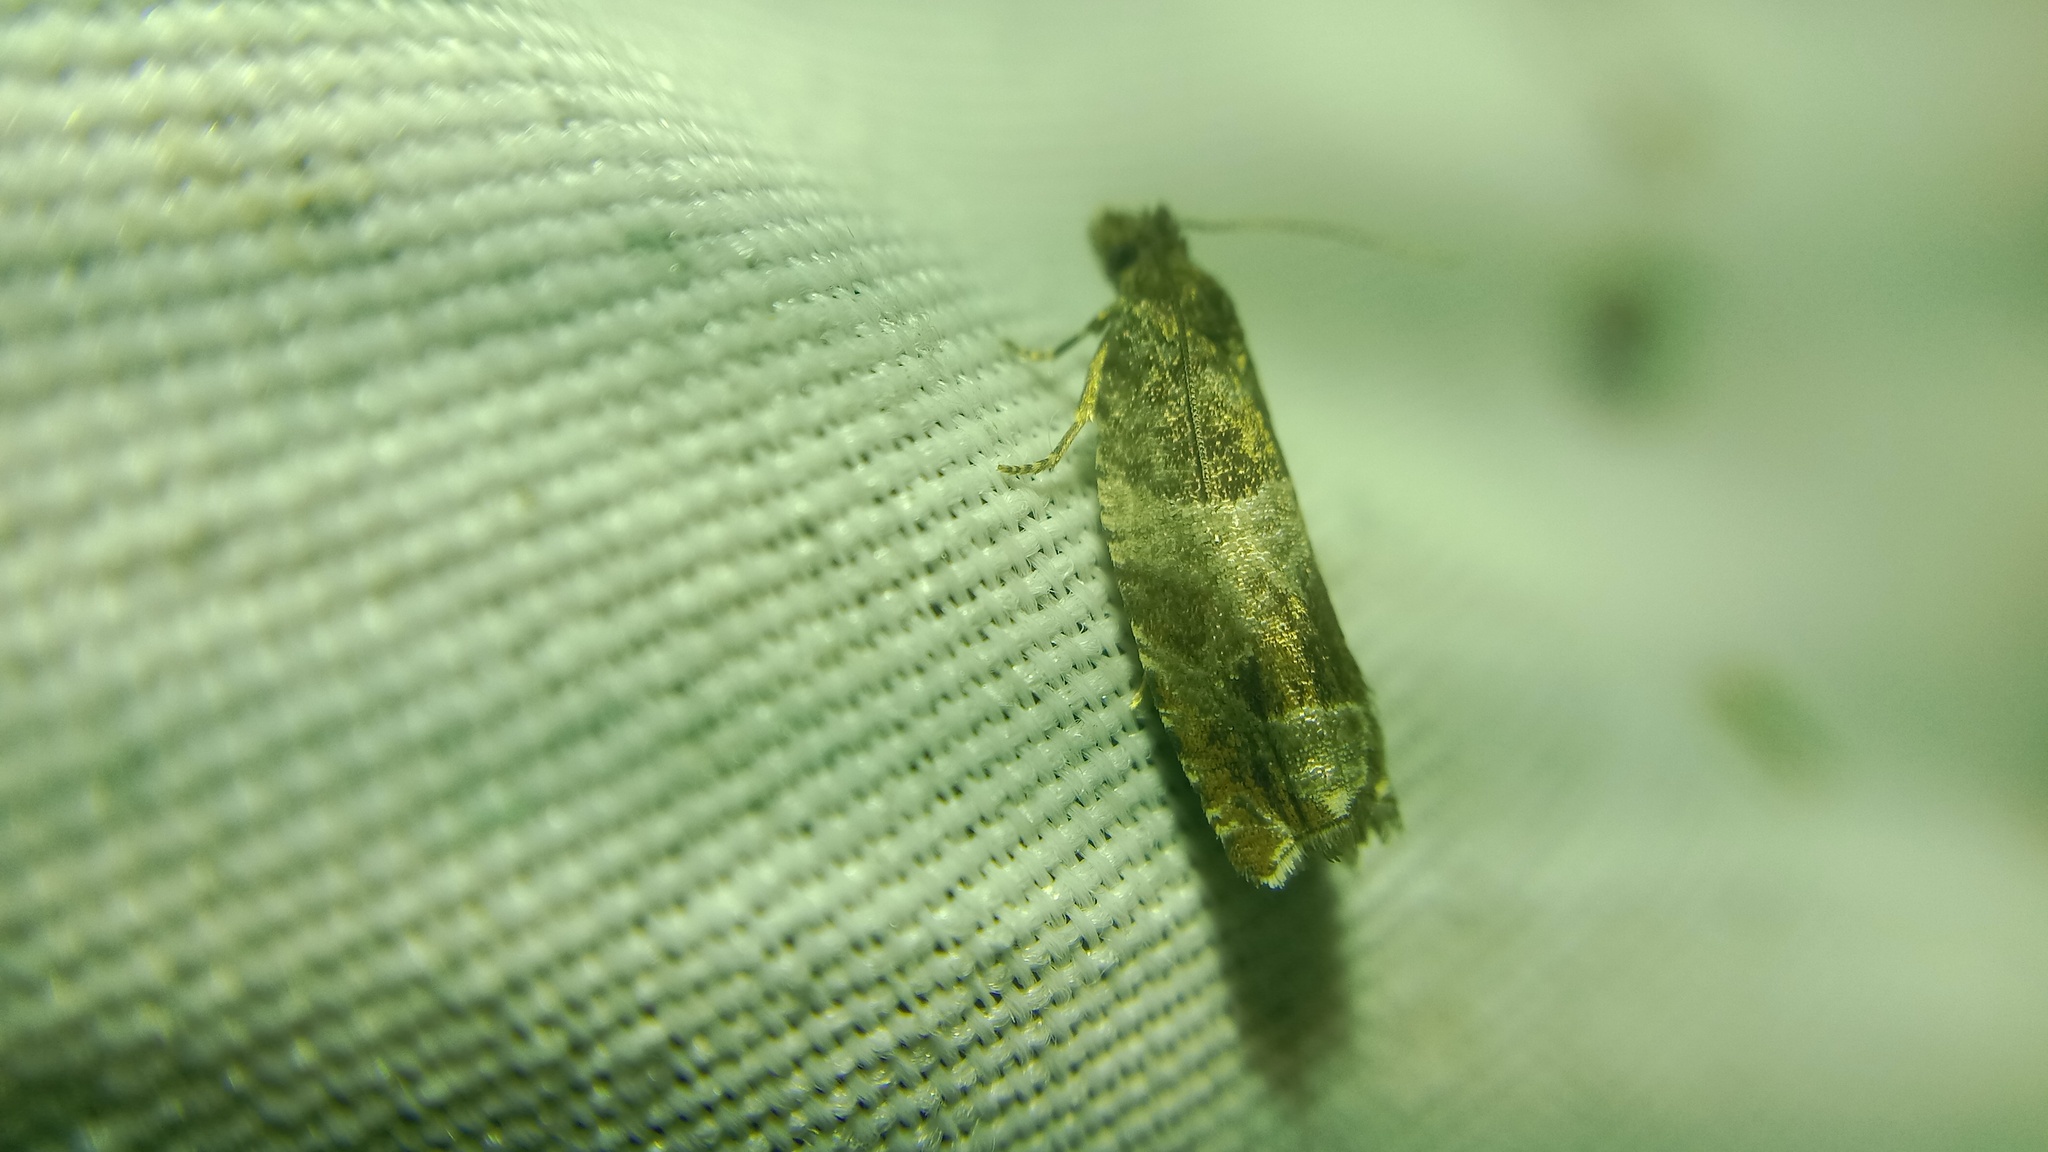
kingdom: Animalia
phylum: Arthropoda
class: Insecta
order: Lepidoptera
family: Tortricidae
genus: Ancylis
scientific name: Ancylis achatana
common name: Triangle-marked roller
